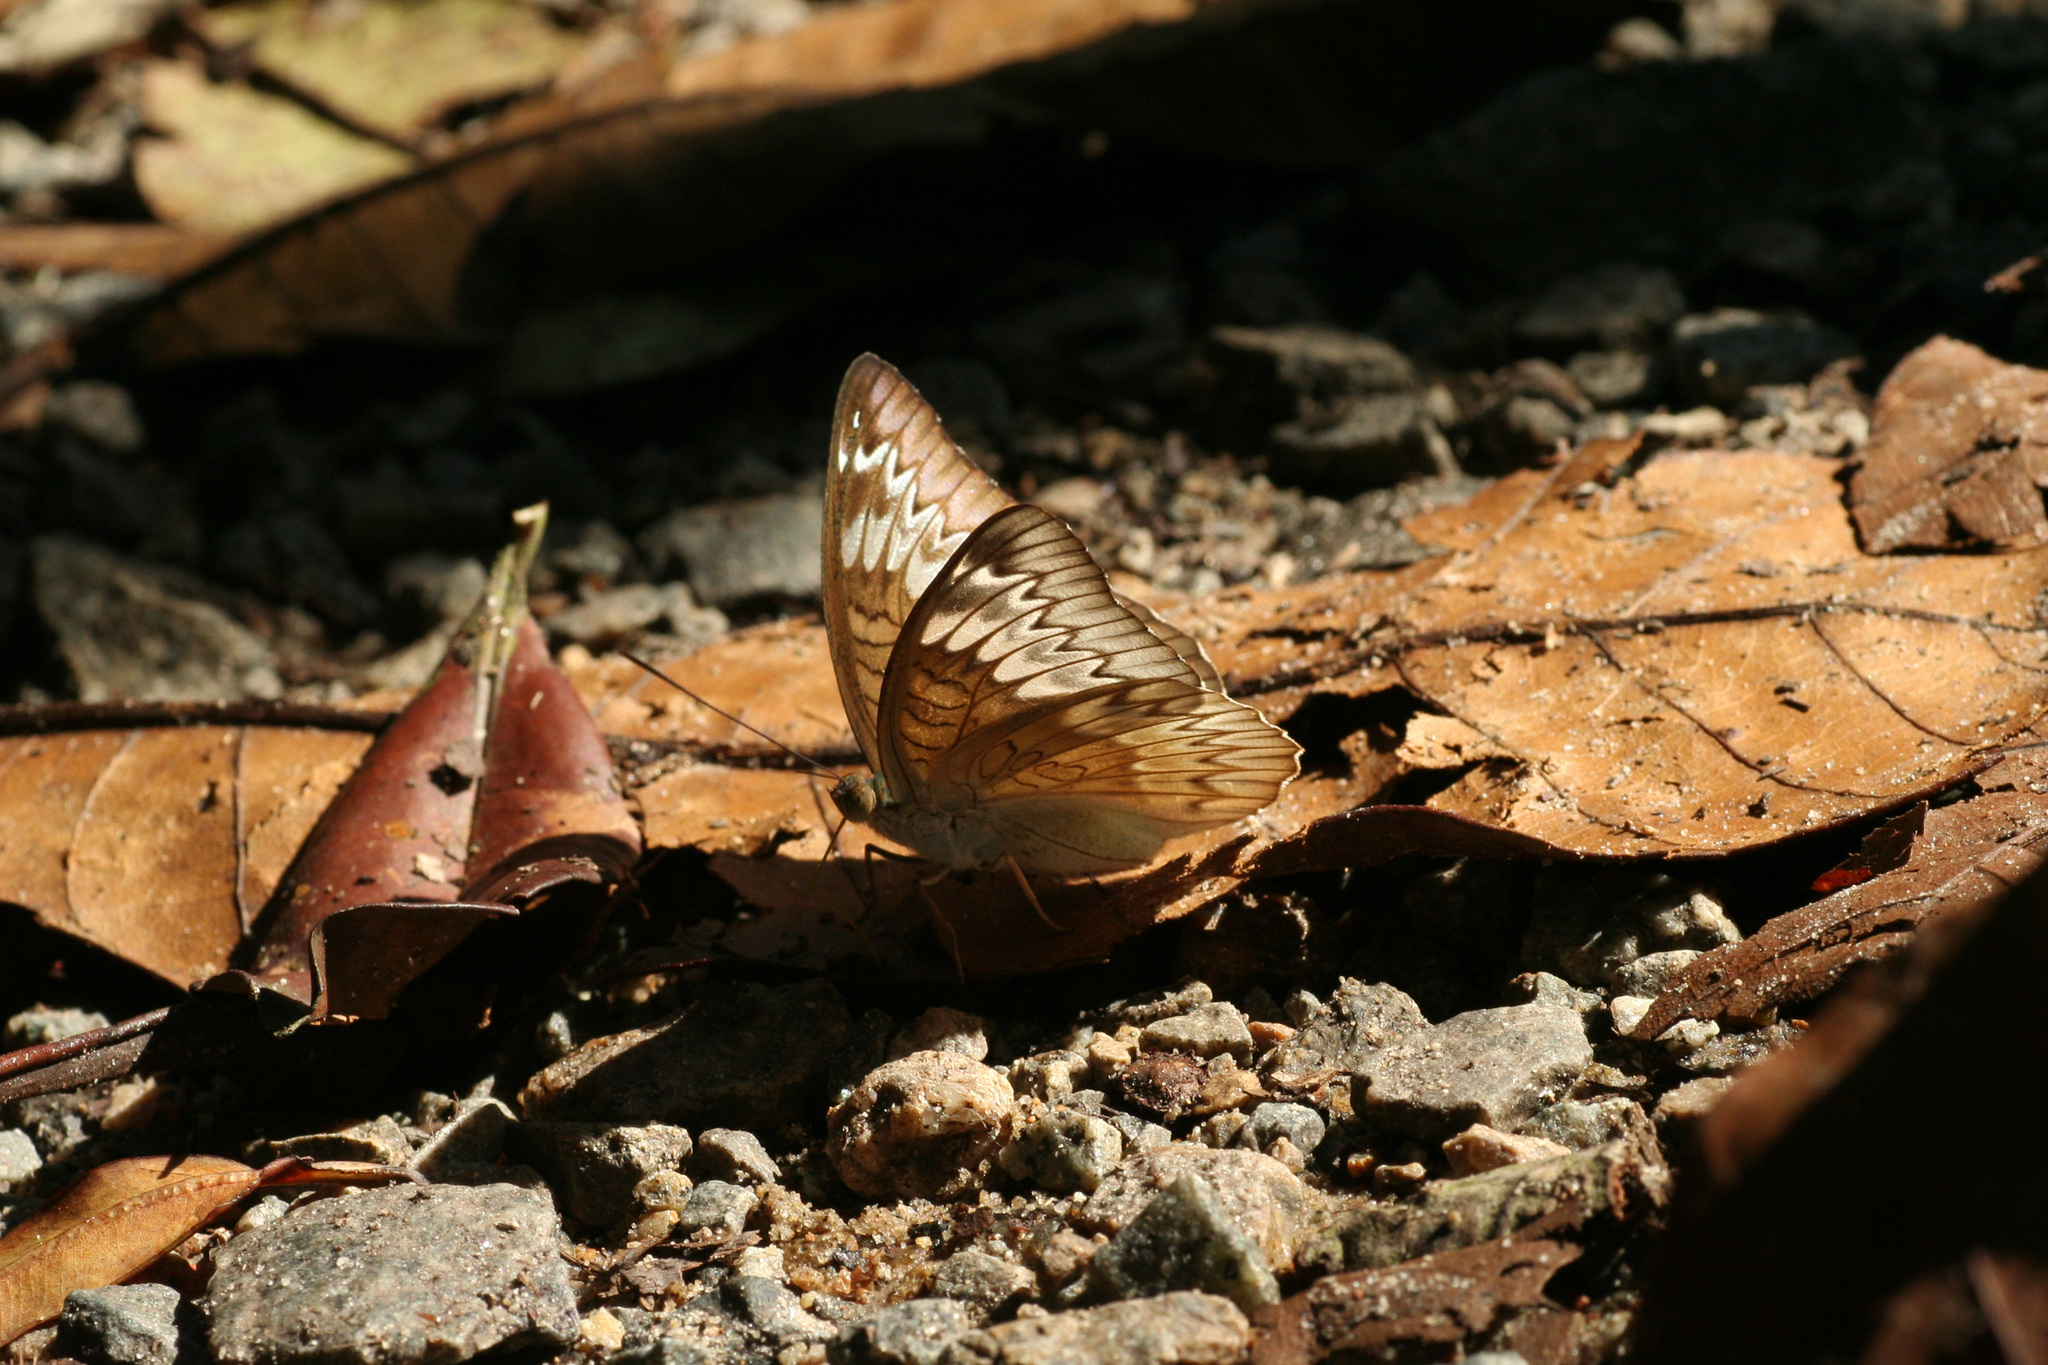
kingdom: Animalia
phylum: Arthropoda
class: Insecta
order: Lepidoptera
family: Nymphalidae
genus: Euthalia
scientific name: Euthalia monina
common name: Powdered baron
